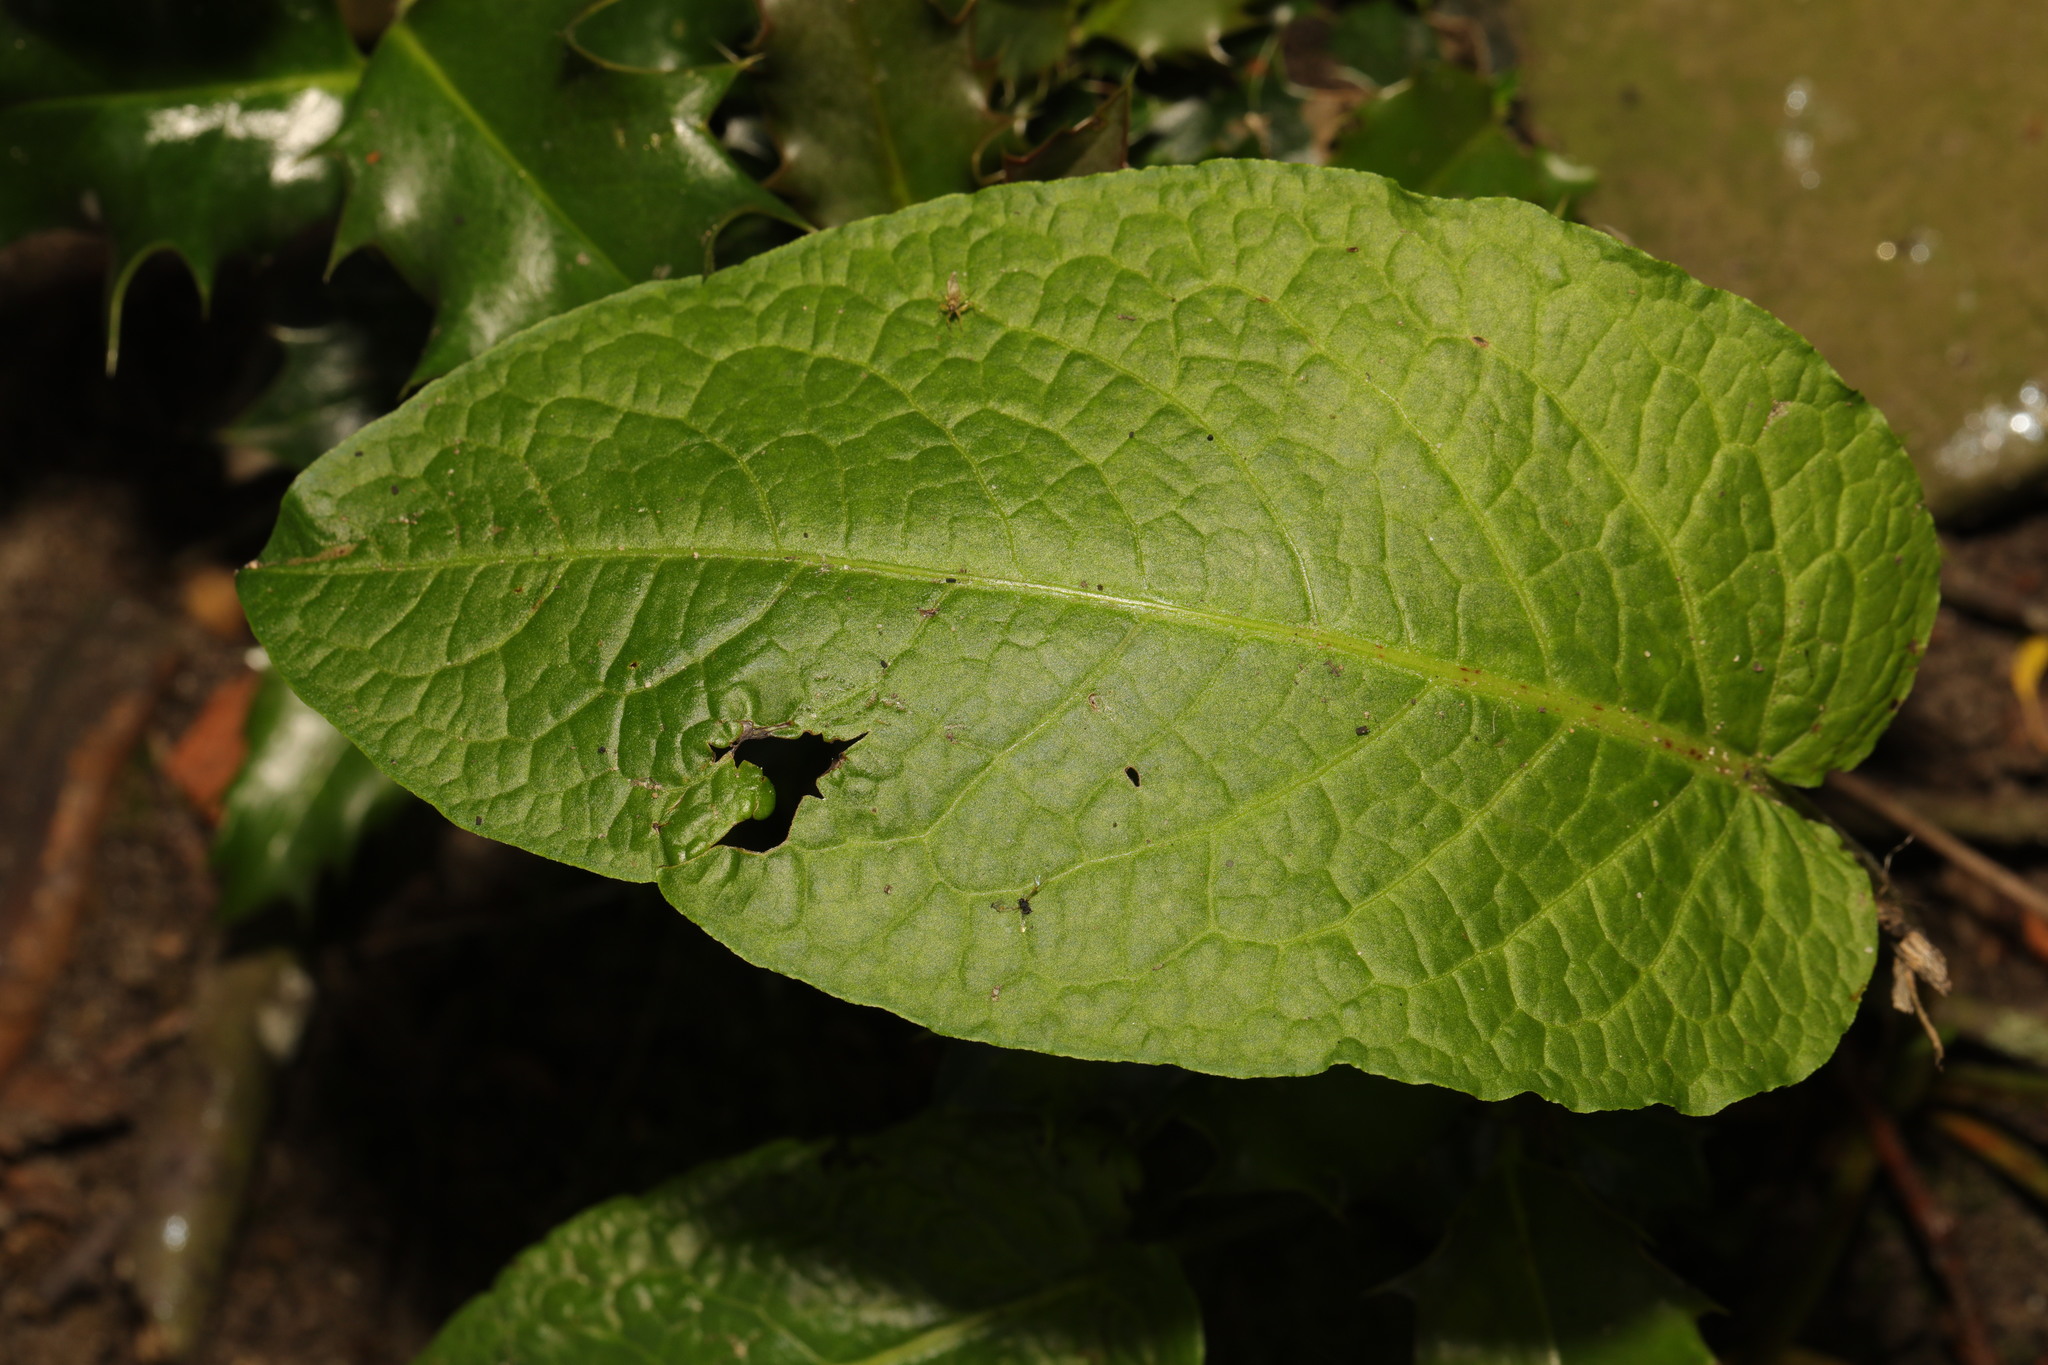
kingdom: Plantae
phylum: Tracheophyta
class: Magnoliopsida
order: Caryophyllales
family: Polygonaceae
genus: Rumex
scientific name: Rumex obtusifolius
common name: Bitter dock
